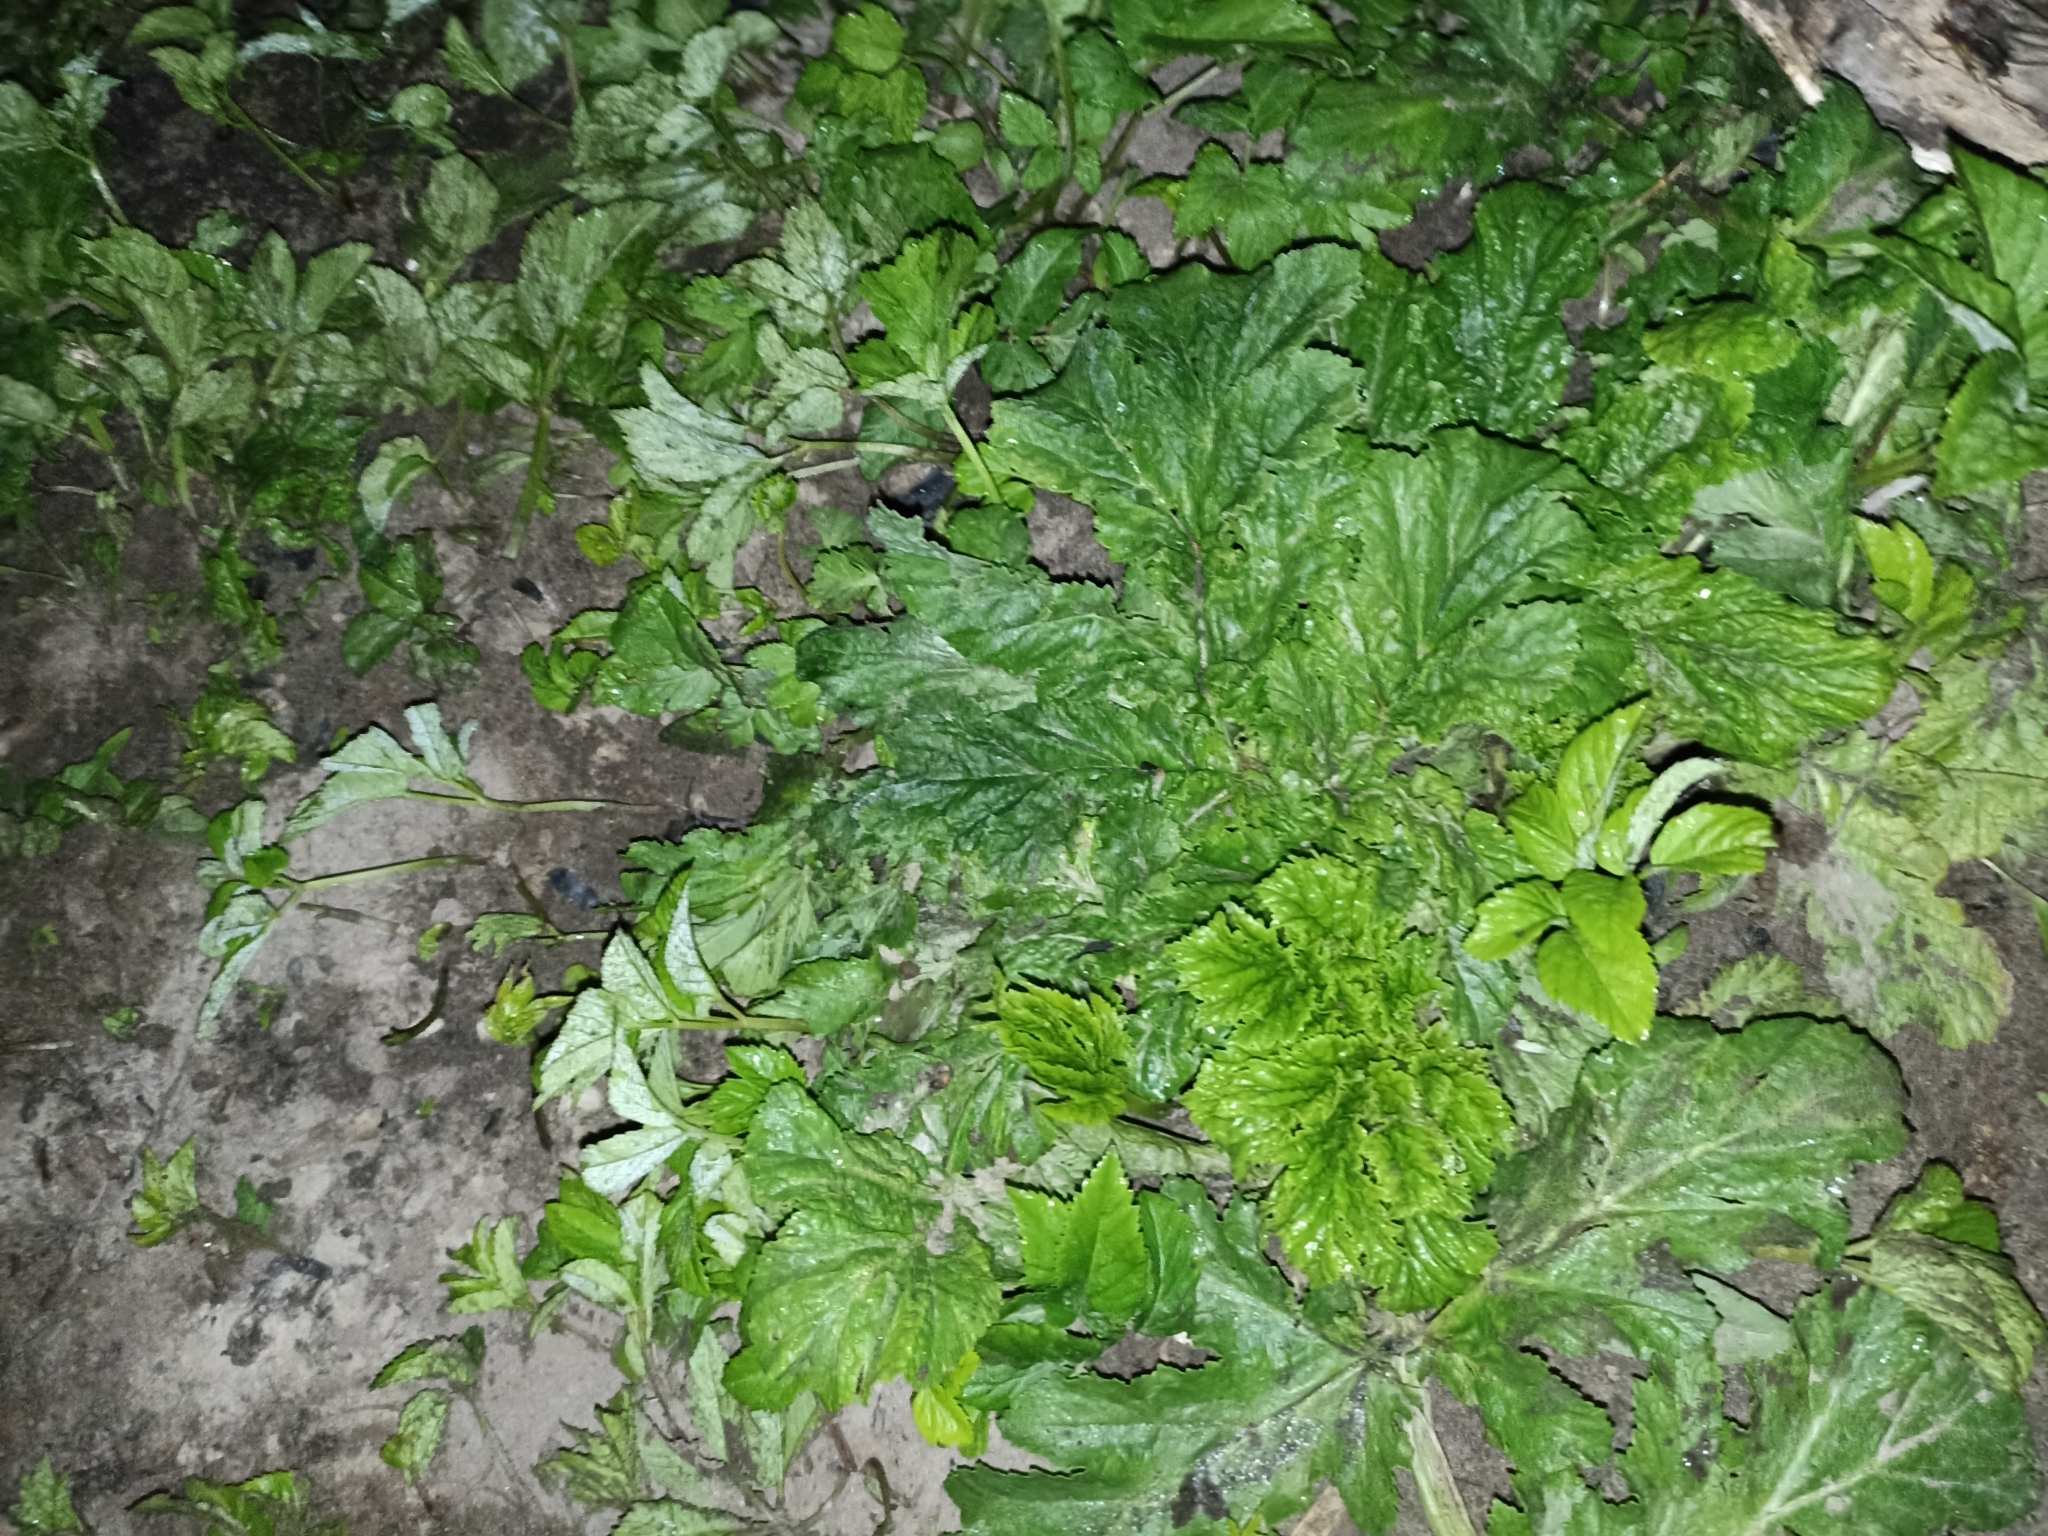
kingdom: Plantae
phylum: Tracheophyta
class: Magnoliopsida
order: Apiales
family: Apiaceae
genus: Heracleum
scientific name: Heracleum sosnowskyi
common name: Sosnowsky's hogweed
